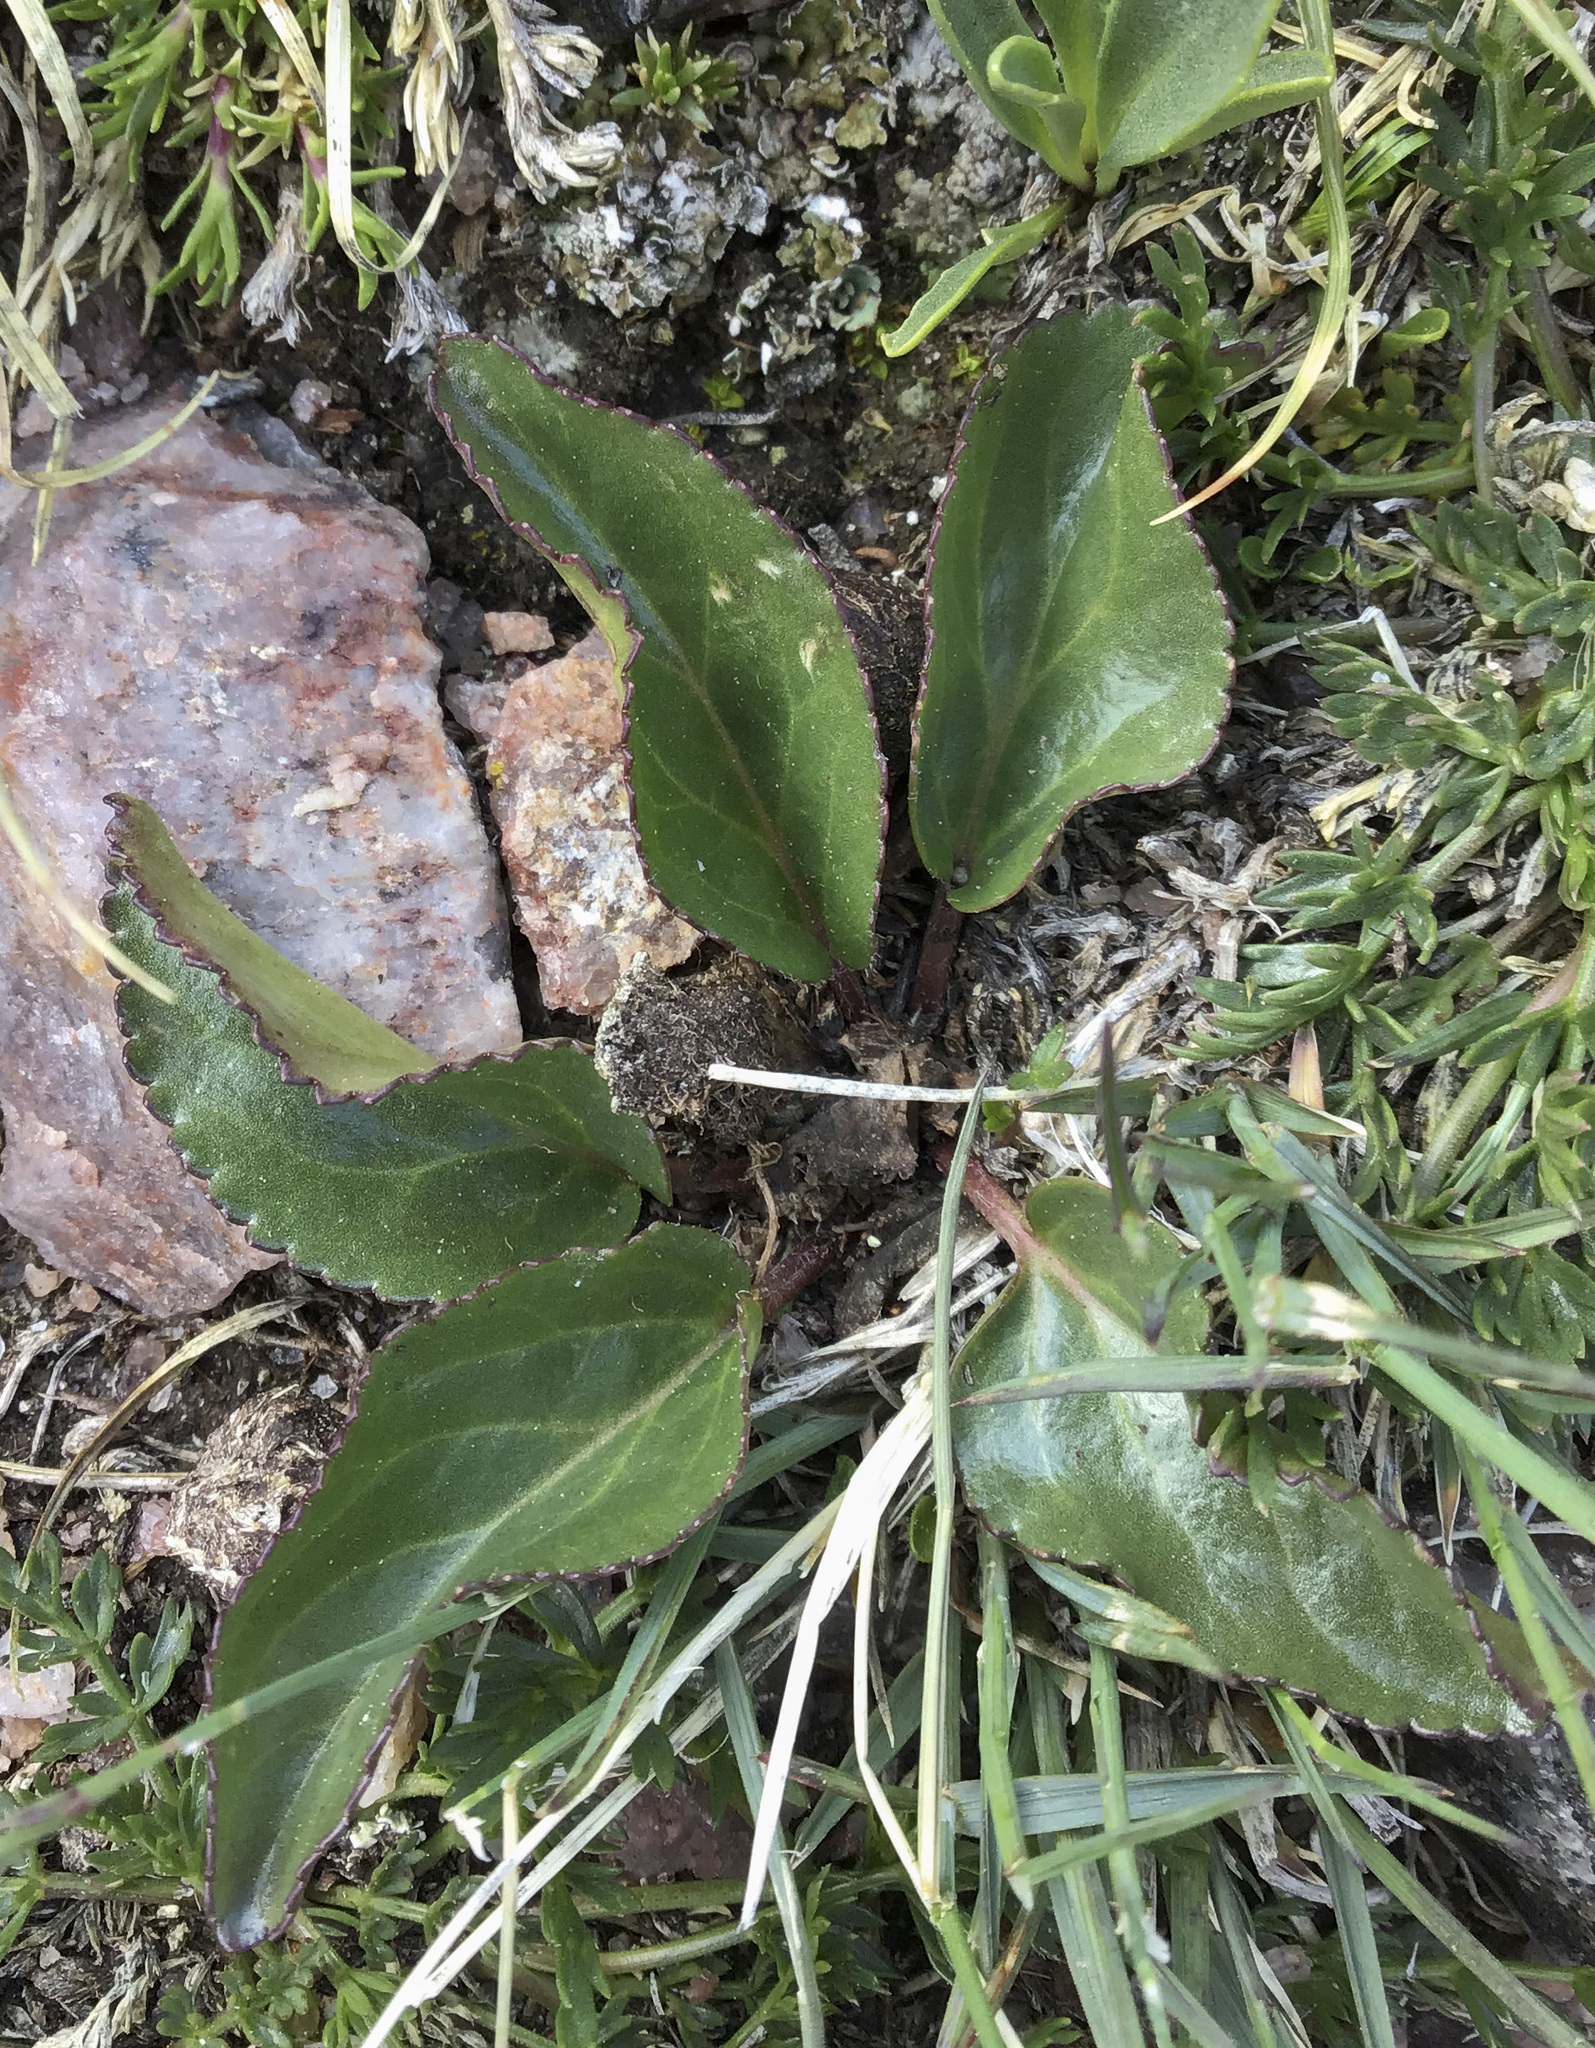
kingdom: Plantae
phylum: Tracheophyta
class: Magnoliopsida
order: Lamiales
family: Plantaginaceae
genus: Synthyris
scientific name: Synthyris alpina
